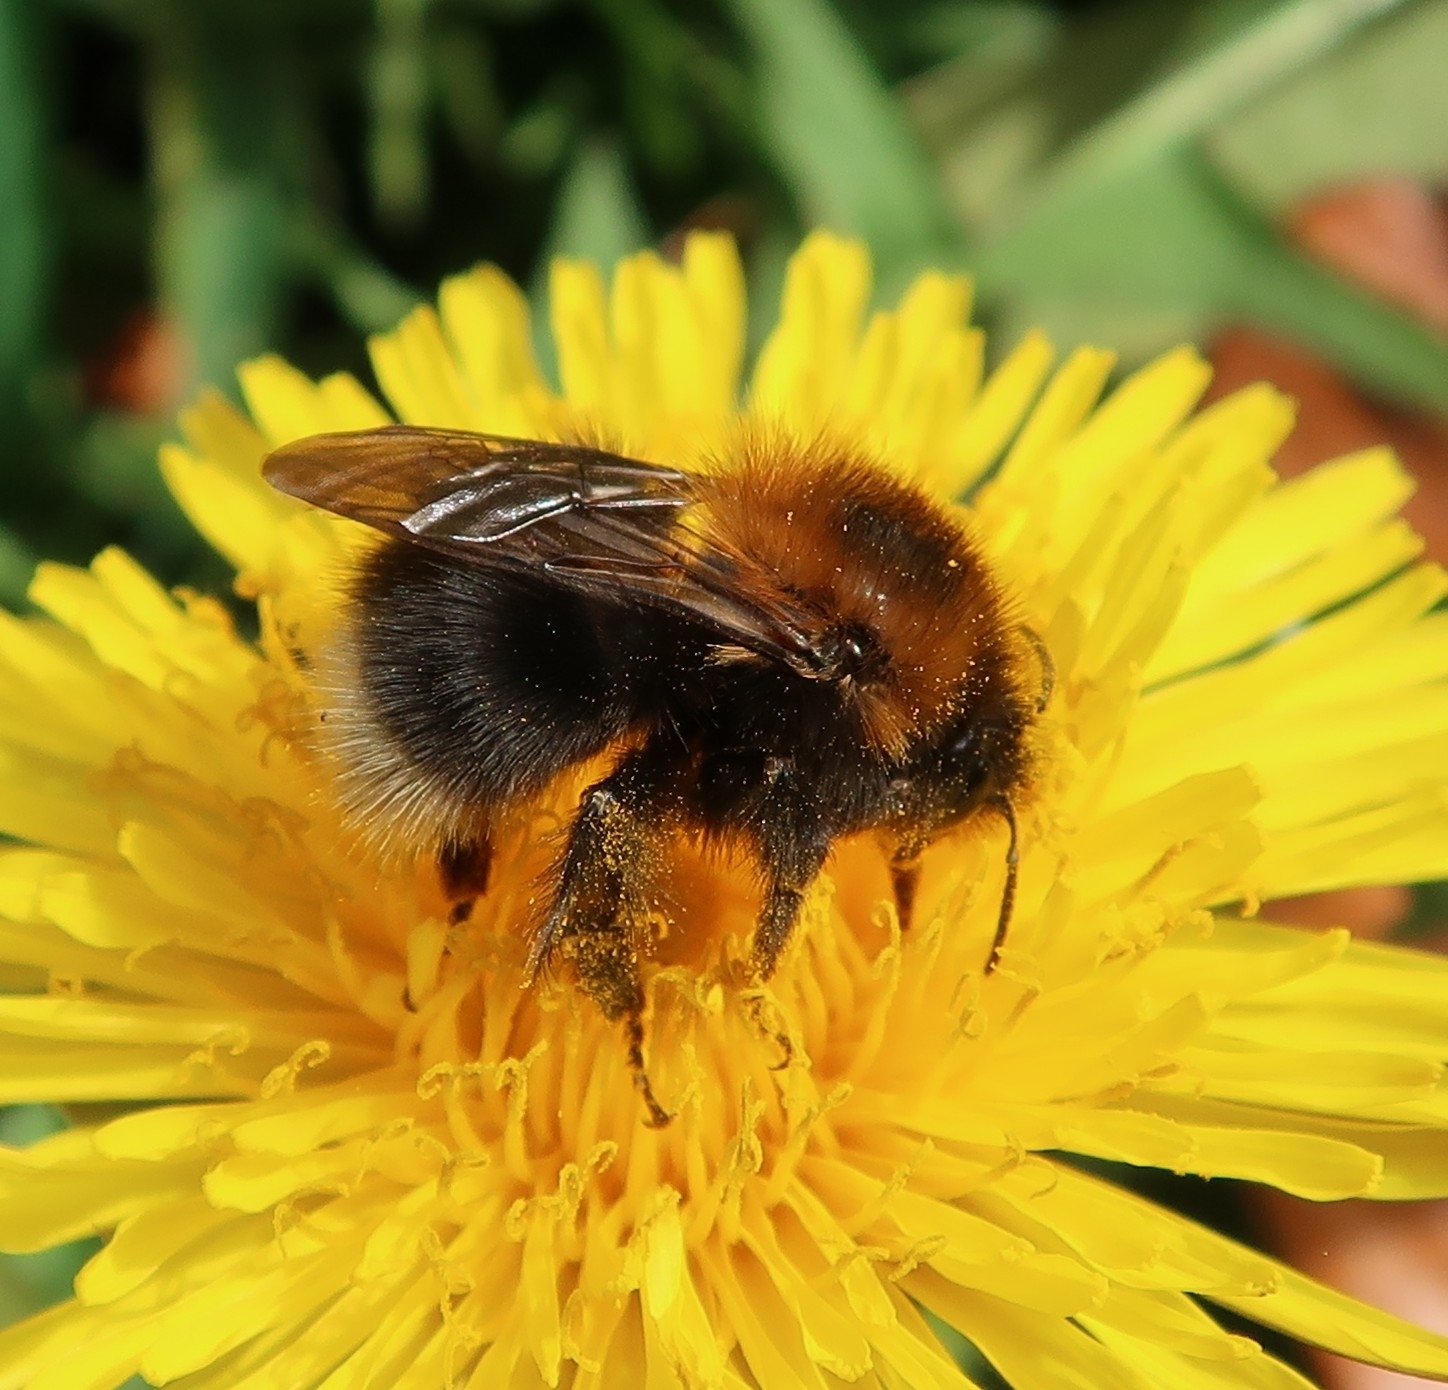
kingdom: Animalia
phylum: Arthropoda
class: Insecta
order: Hymenoptera
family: Apidae
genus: Bombus
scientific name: Bombus hypnorum
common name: New garden bumblebee
